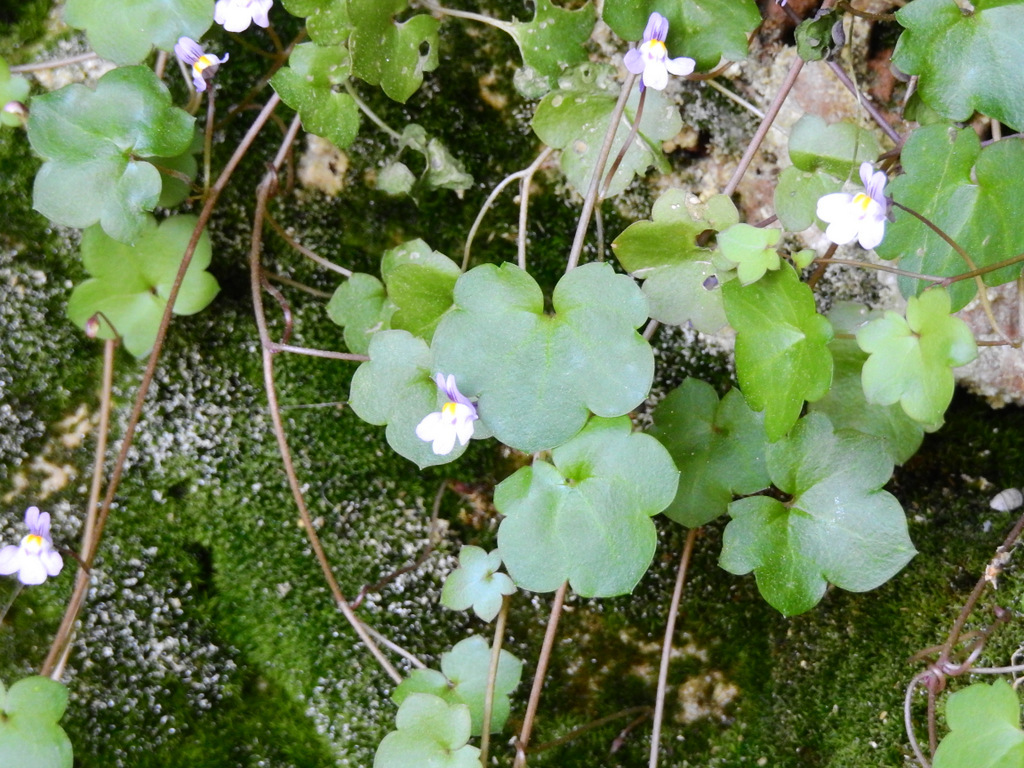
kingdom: Plantae
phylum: Tracheophyta
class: Magnoliopsida
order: Lamiales
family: Plantaginaceae
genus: Cymbalaria
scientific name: Cymbalaria muralis
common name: Ivy-leaved toadflax
